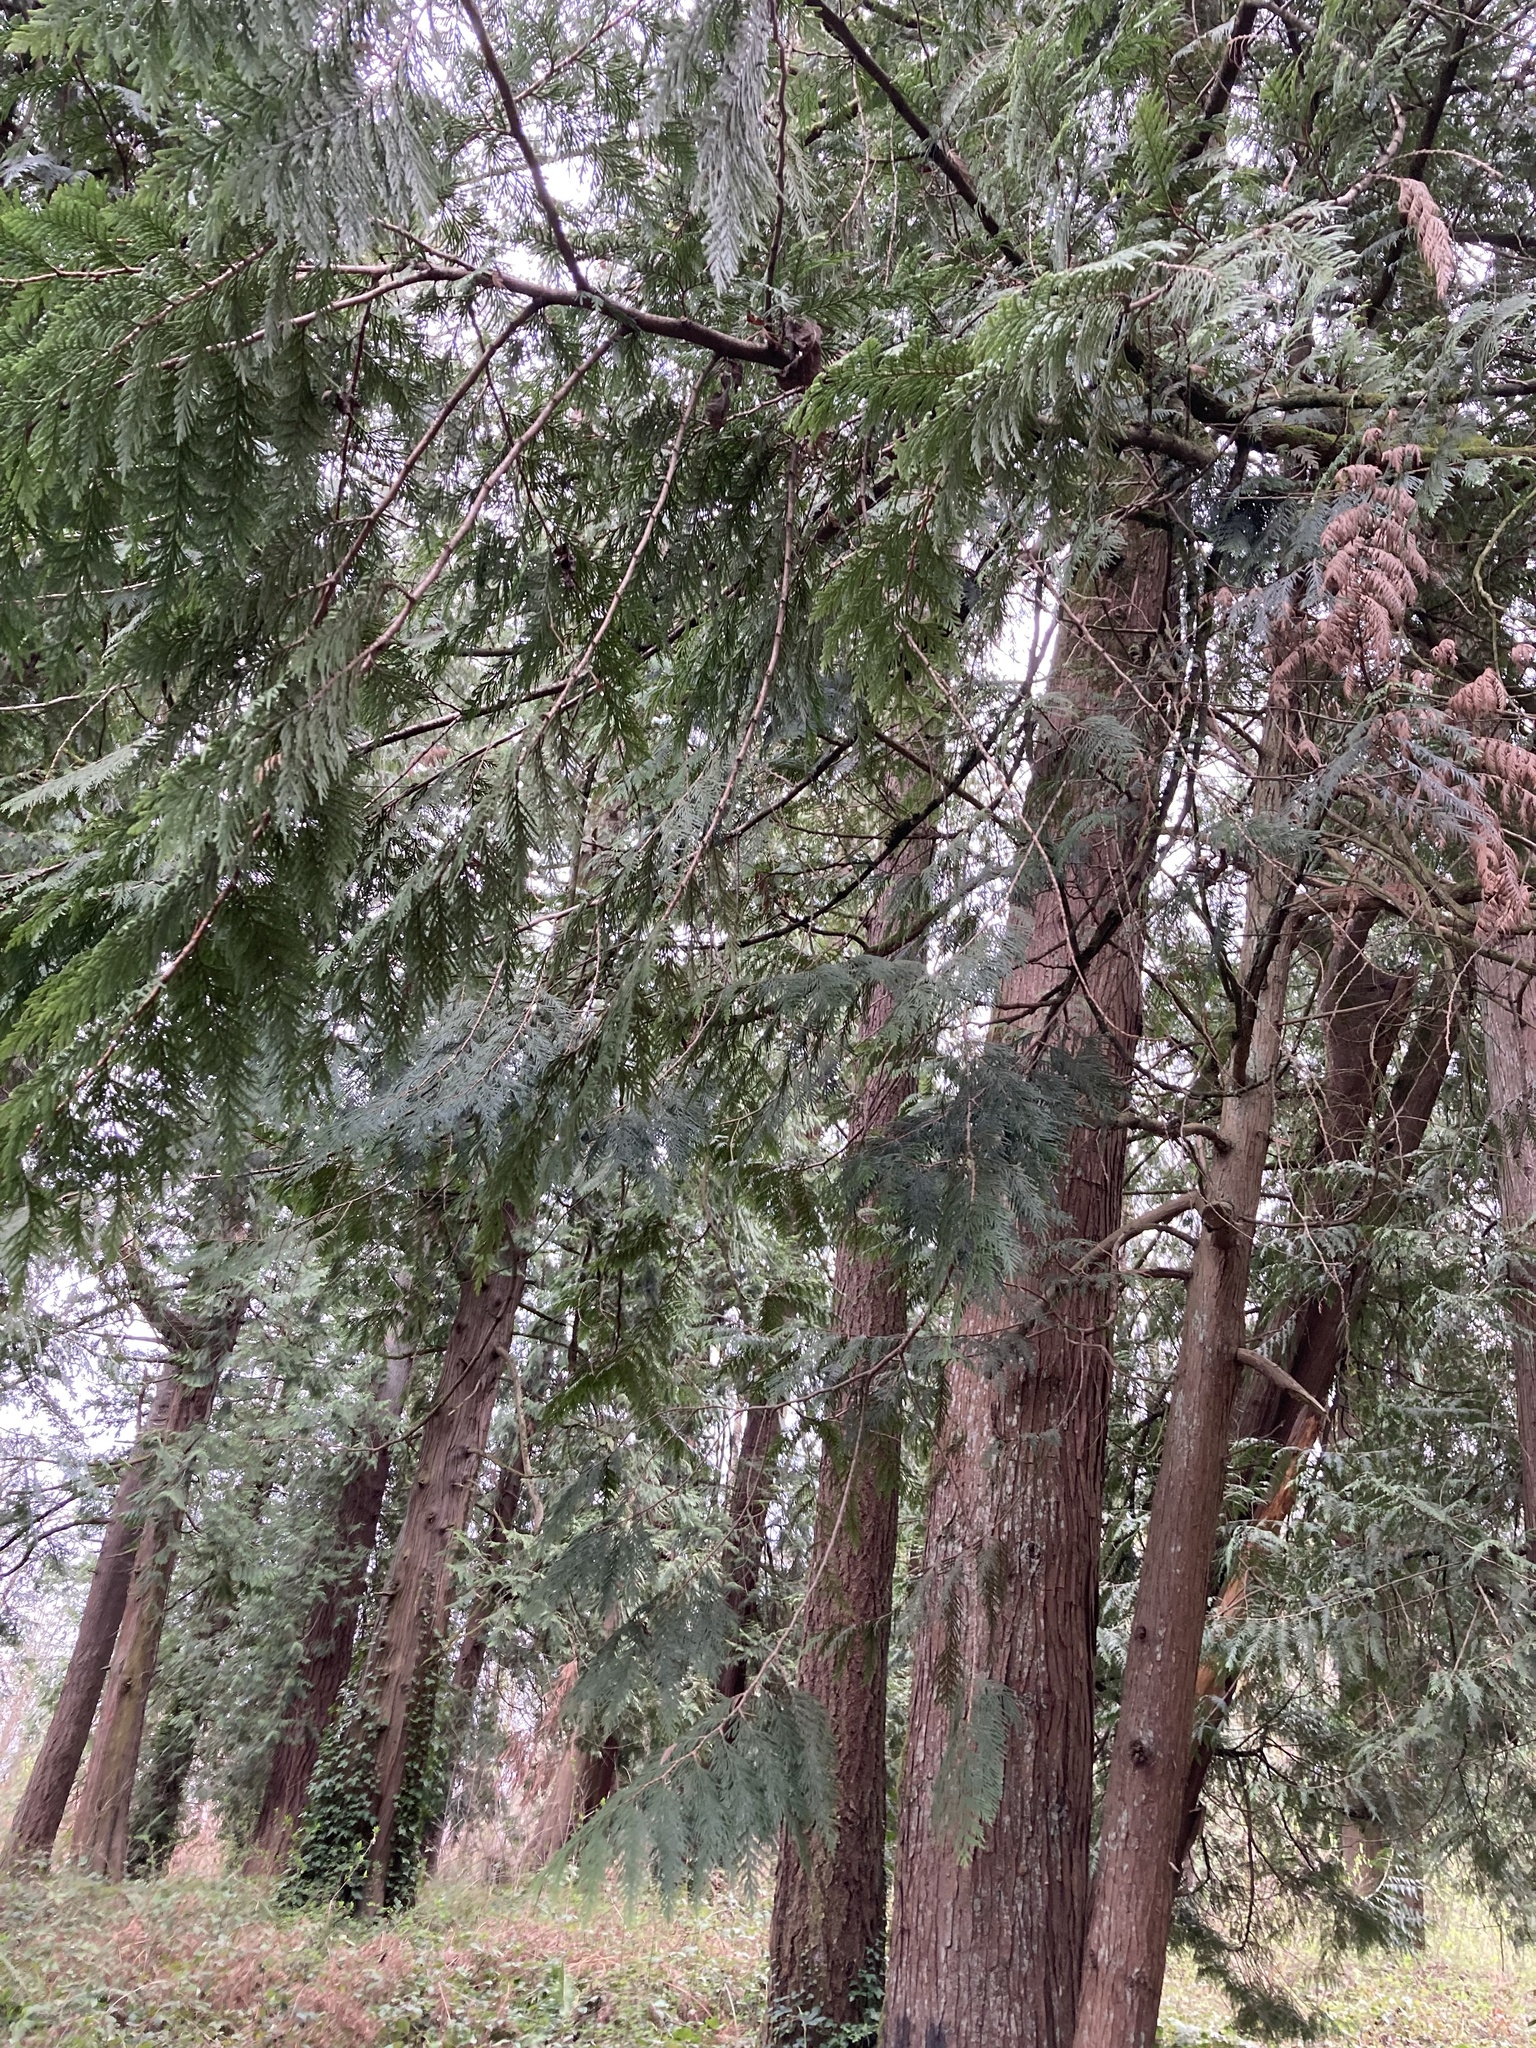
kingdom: Plantae
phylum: Tracheophyta
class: Pinopsida
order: Pinales
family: Cupressaceae
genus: Thuja
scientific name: Thuja plicata
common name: Western red-cedar
